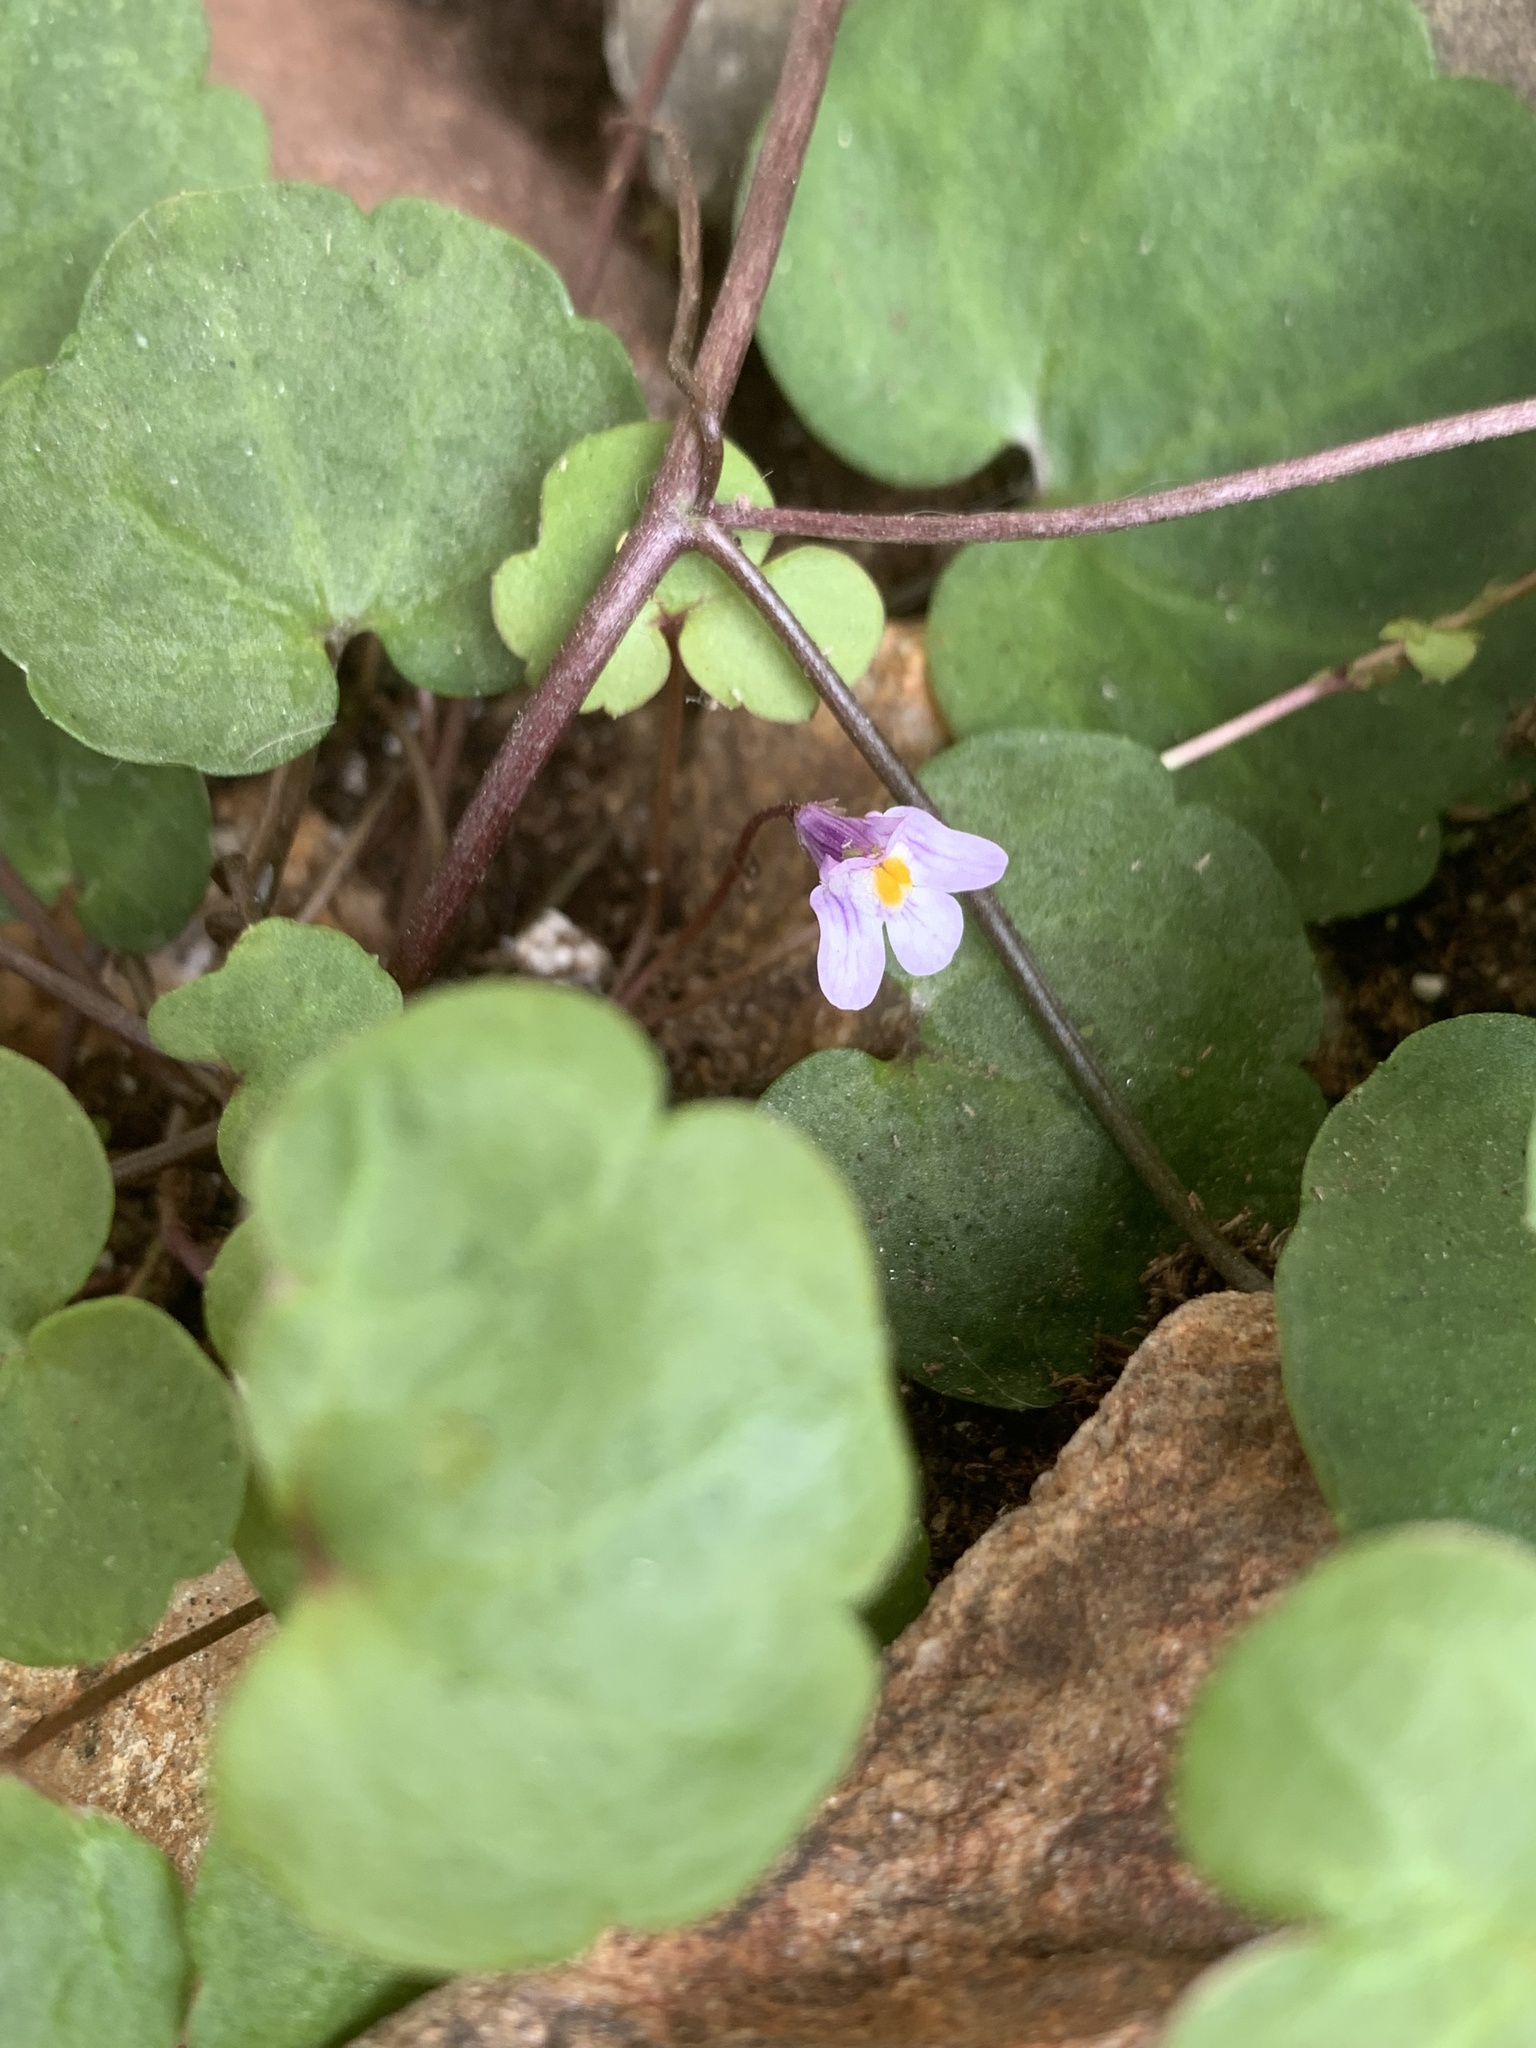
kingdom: Plantae
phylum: Tracheophyta
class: Magnoliopsida
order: Lamiales
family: Plantaginaceae
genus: Cymbalaria
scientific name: Cymbalaria muralis
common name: Ivy-leaved toadflax
